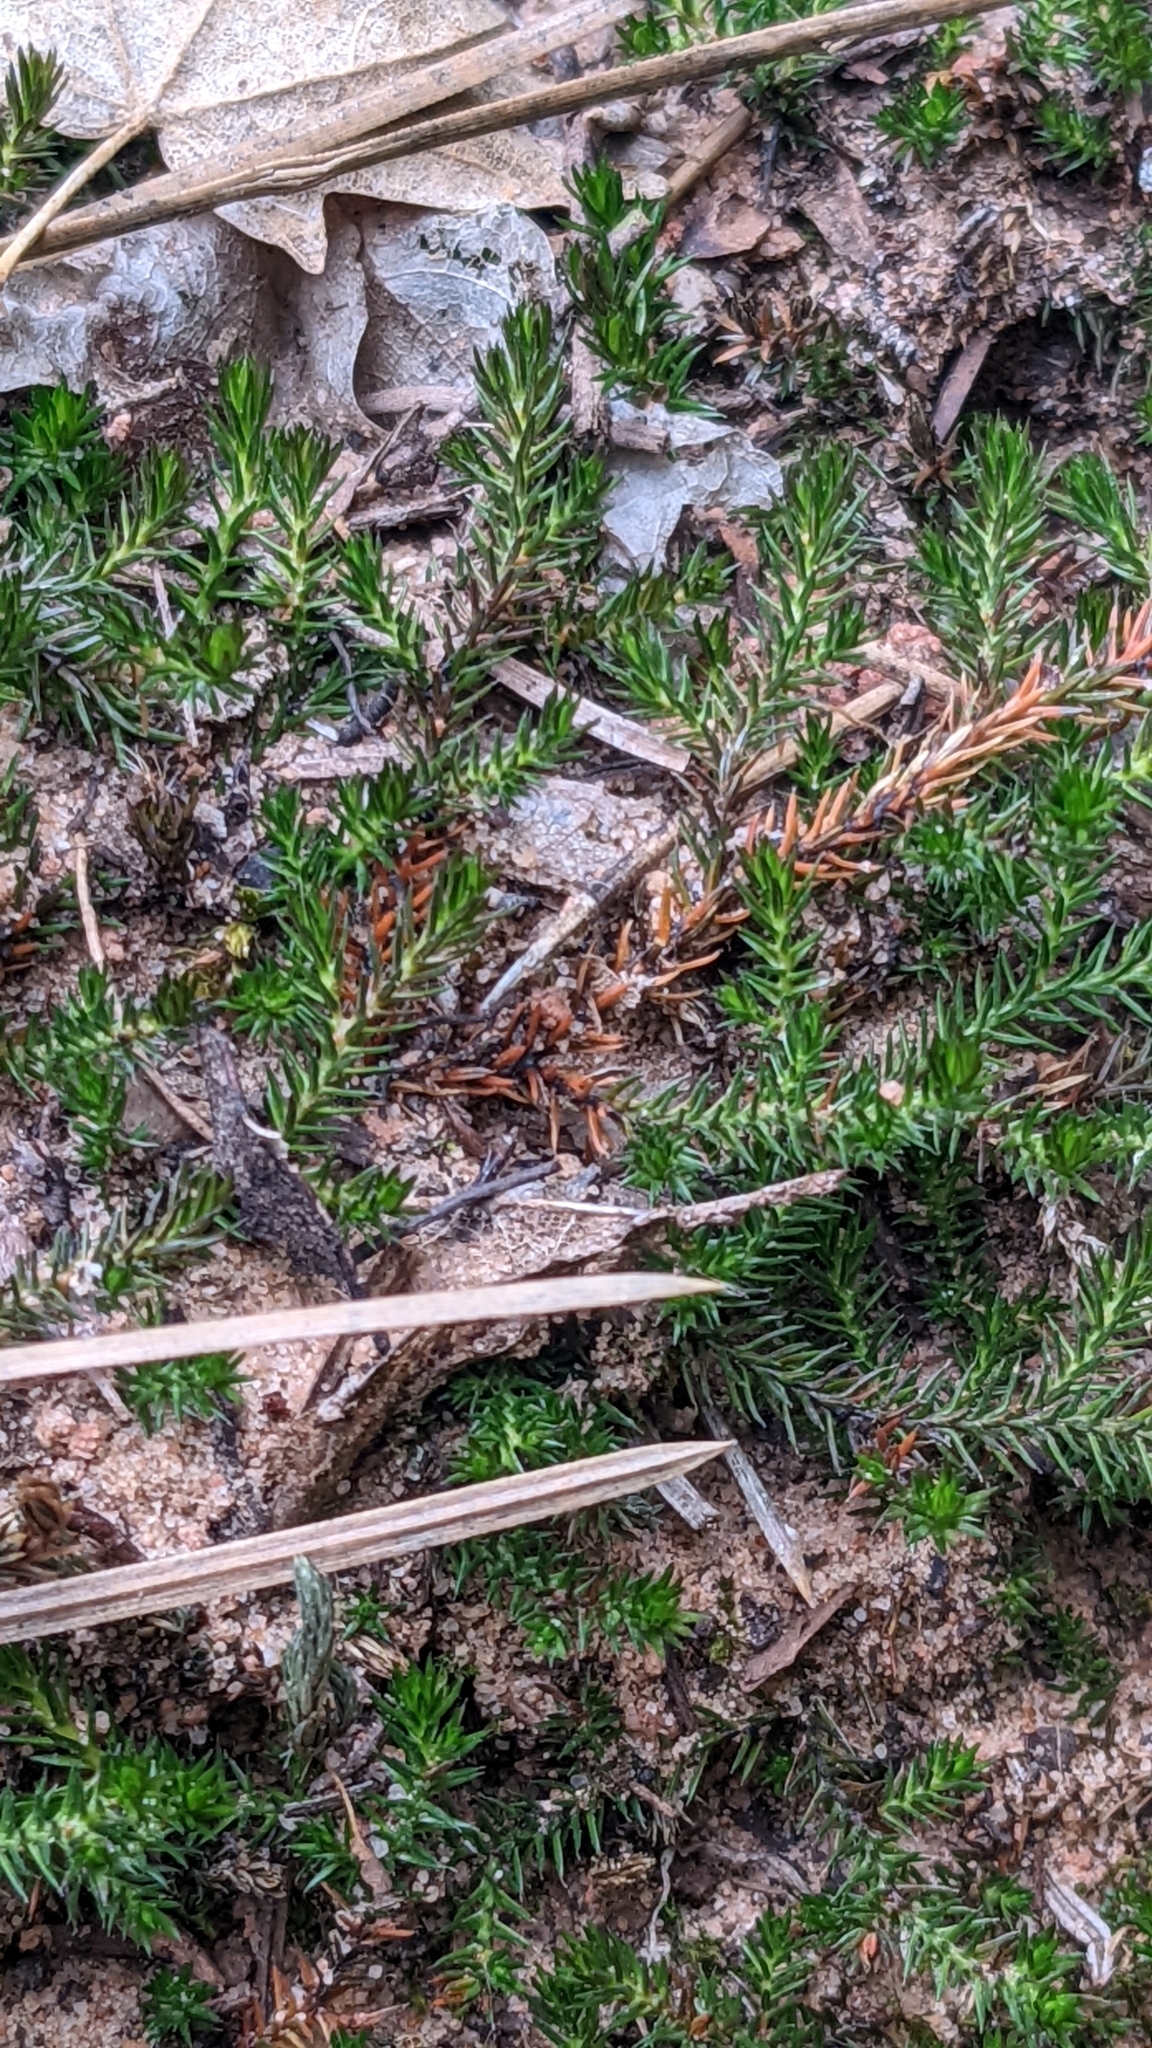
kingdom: Plantae
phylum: Tracheophyta
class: Lycopodiopsida
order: Selaginellales
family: Selaginellaceae
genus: Selaginella
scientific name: Selaginella underwoodii
